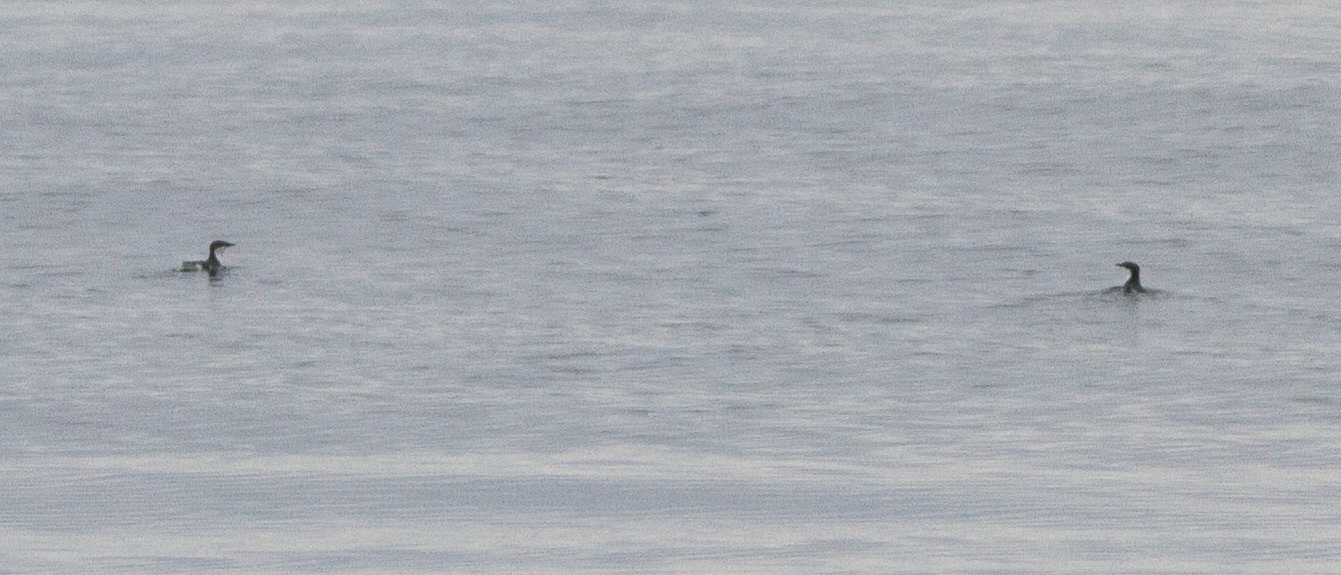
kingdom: Animalia
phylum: Chordata
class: Aves
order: Charadriiformes
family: Alcidae
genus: Synthliboramphus
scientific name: Synthliboramphus scrippsi
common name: Scripps's murrelet
